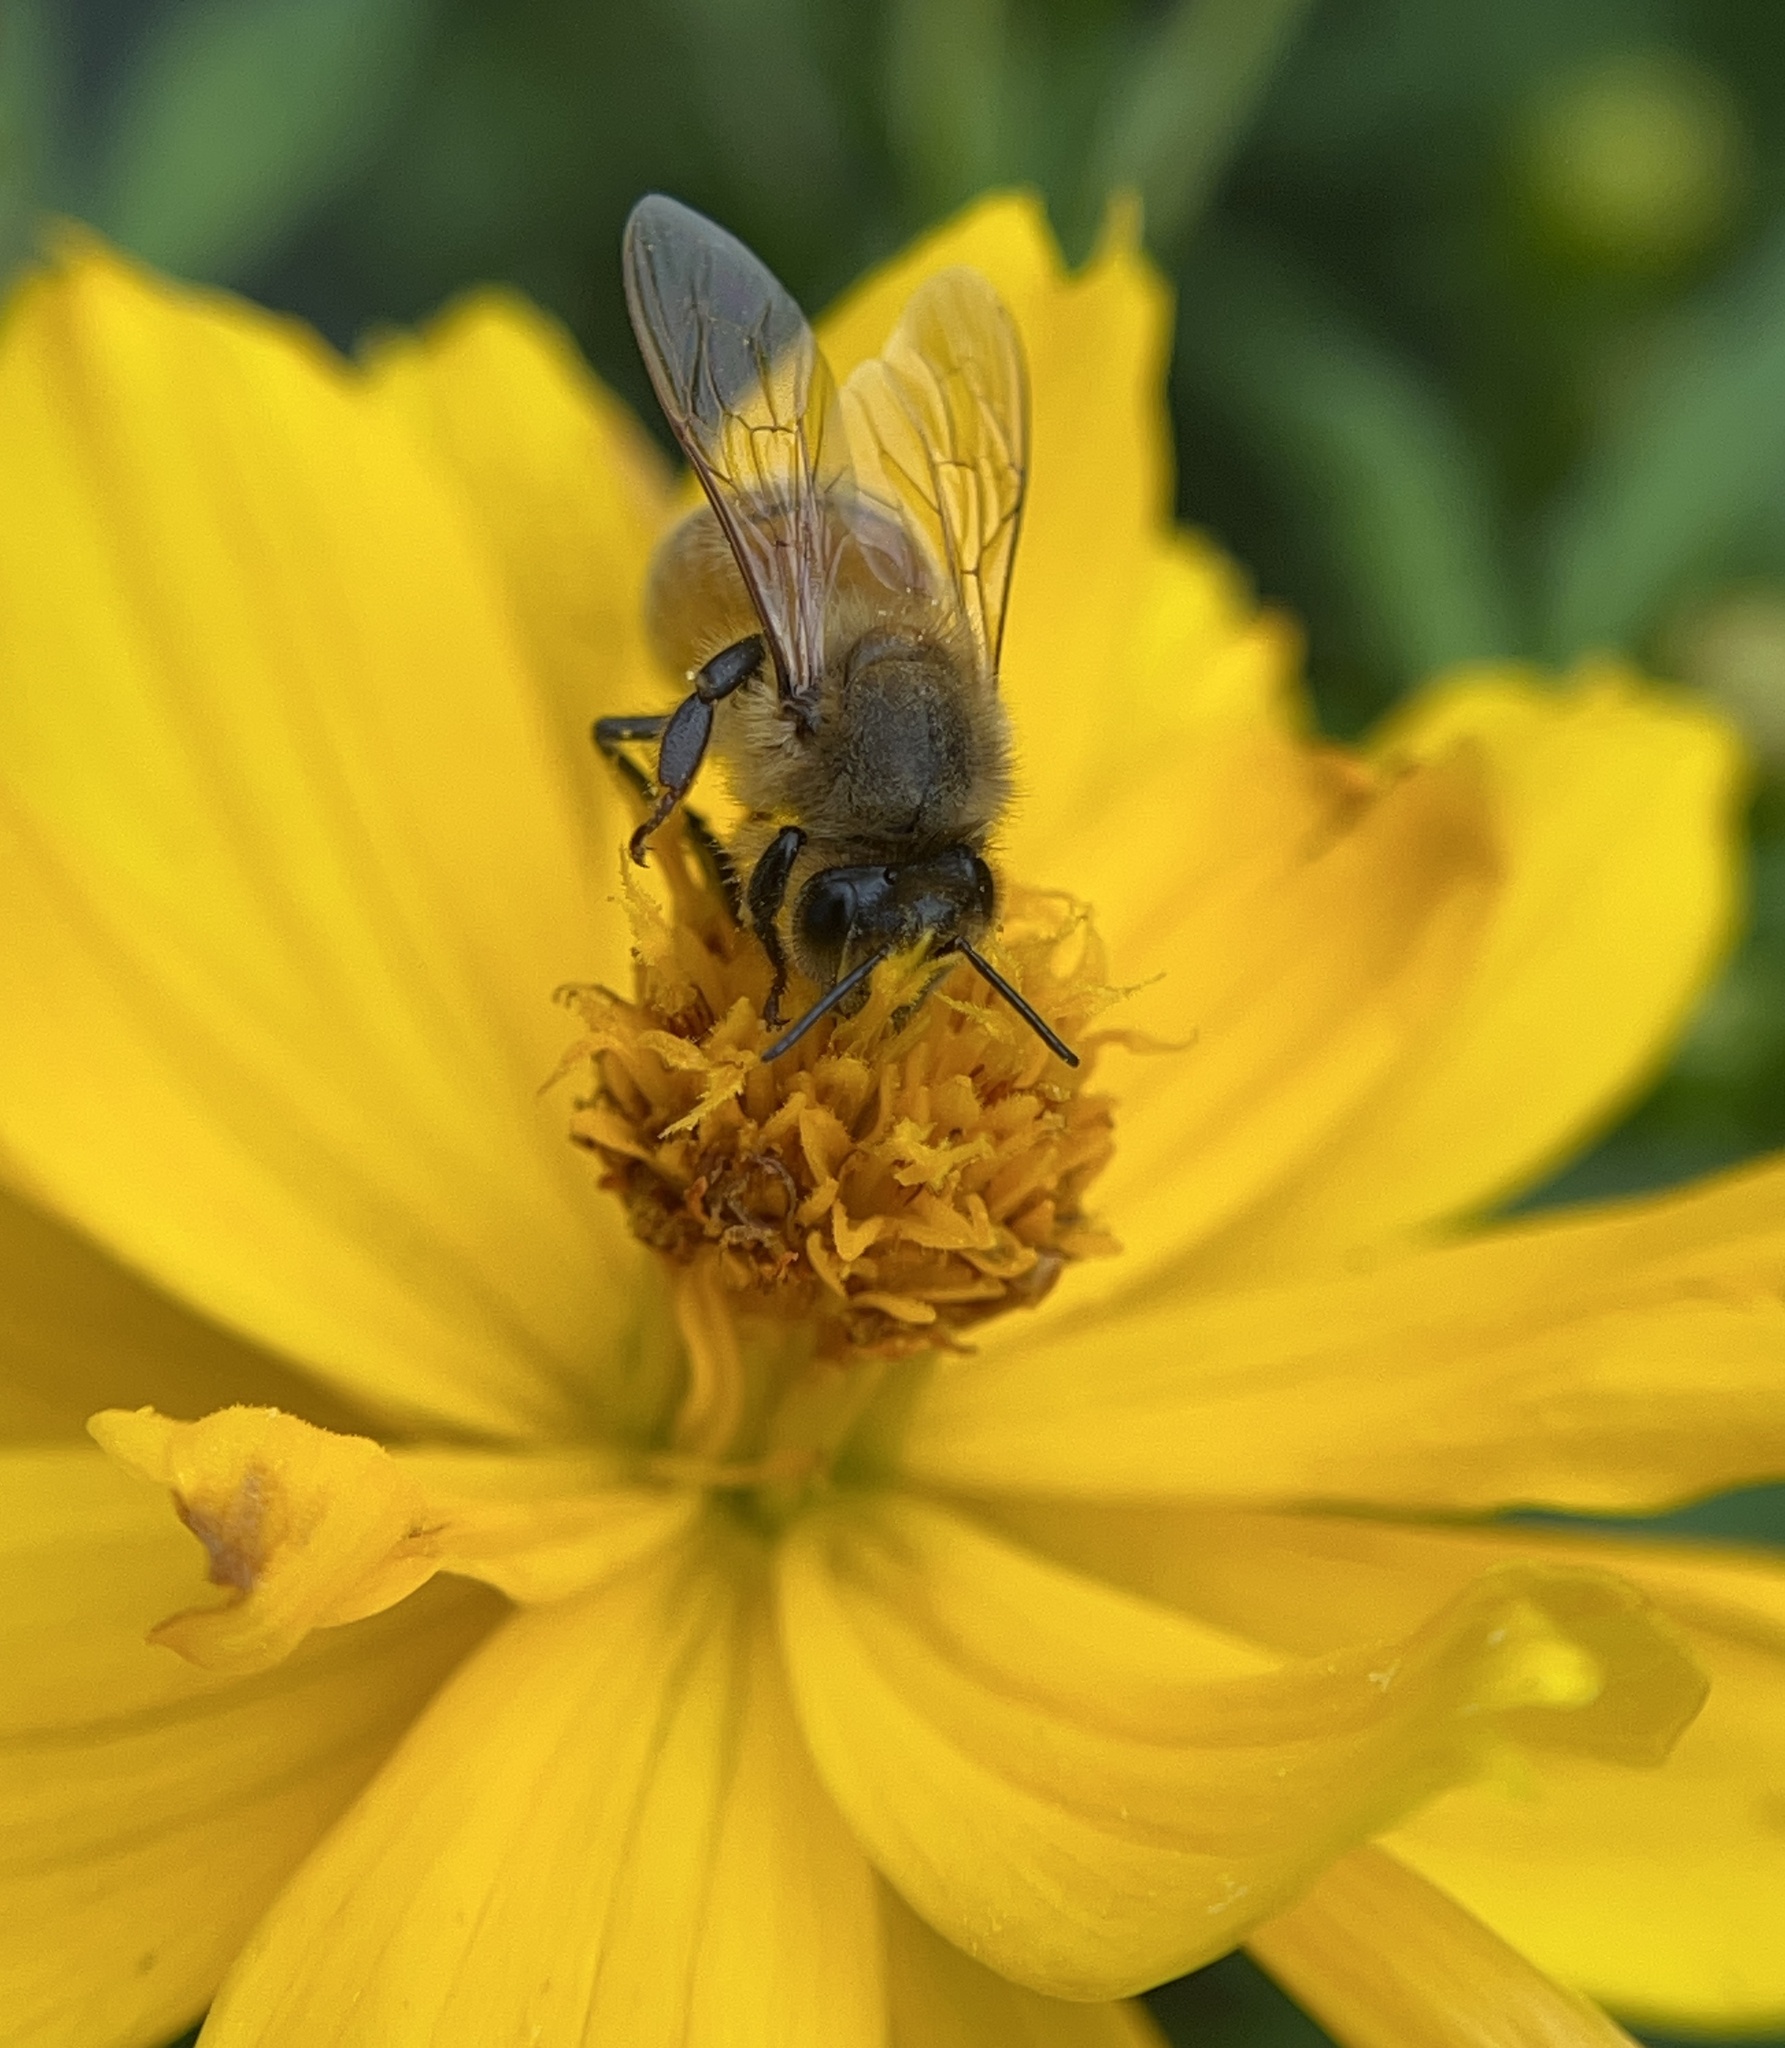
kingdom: Animalia
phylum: Arthropoda
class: Insecta
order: Hymenoptera
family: Apidae
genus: Apis
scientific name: Apis mellifera
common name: Honey bee
